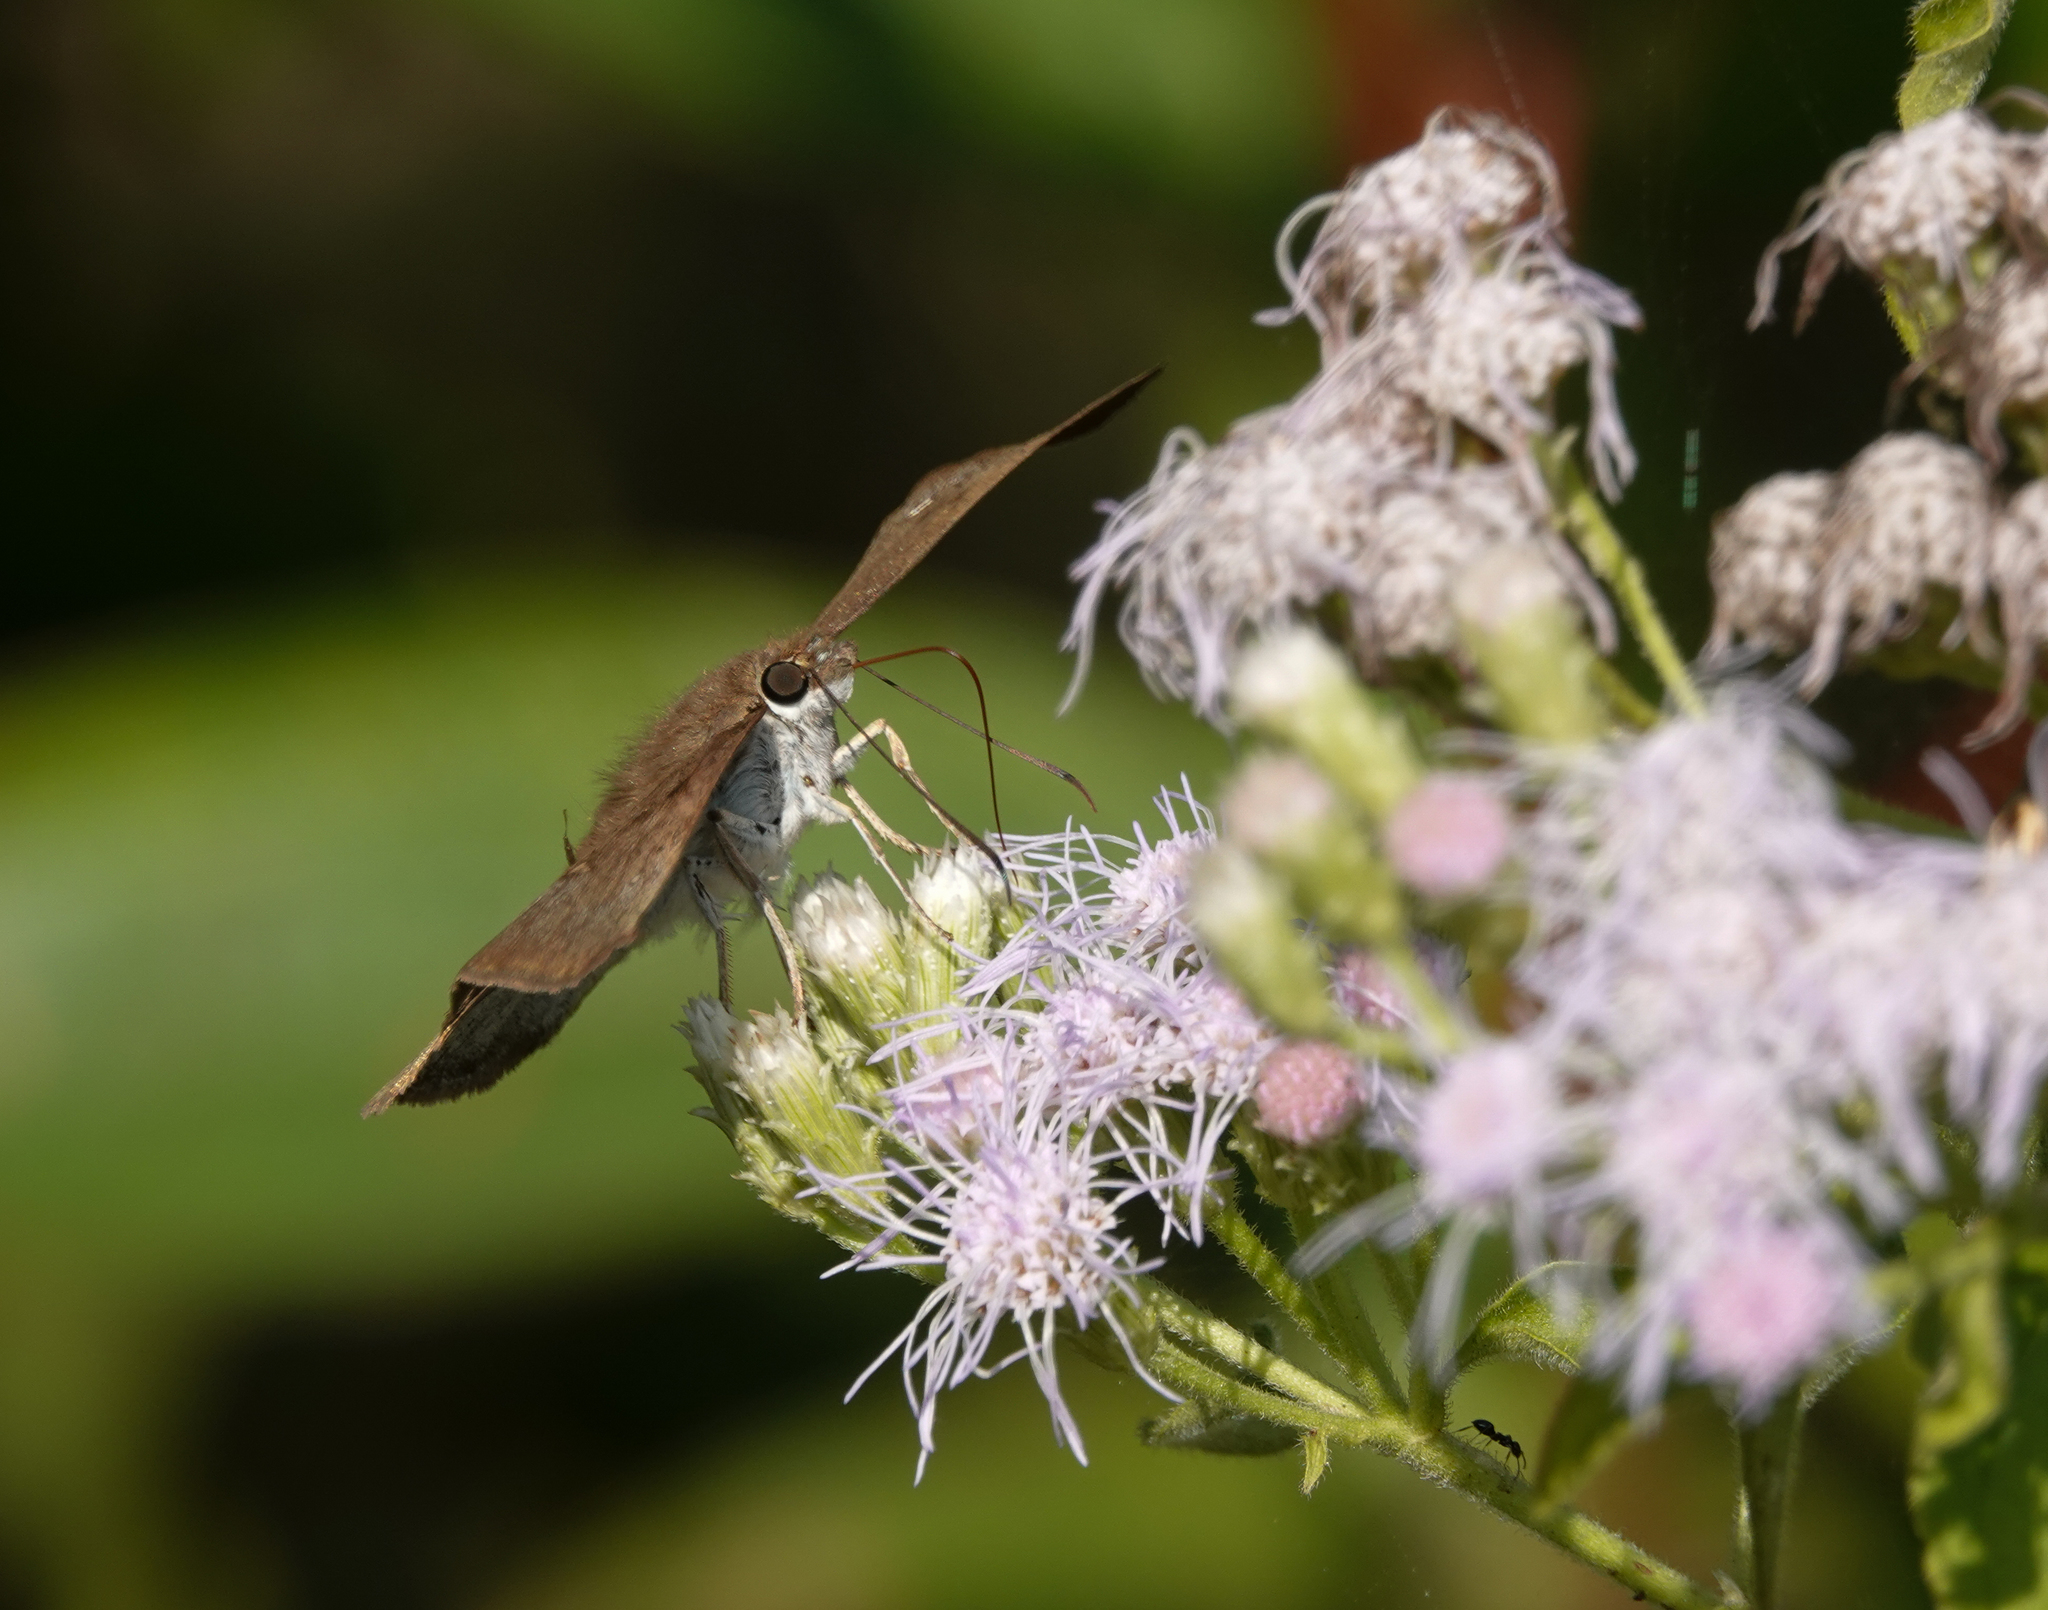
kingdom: Animalia
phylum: Arthropoda
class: Insecta
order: Lepidoptera
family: Hesperiidae
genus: Tagiades
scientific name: Tagiades japetus
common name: Pied flat
